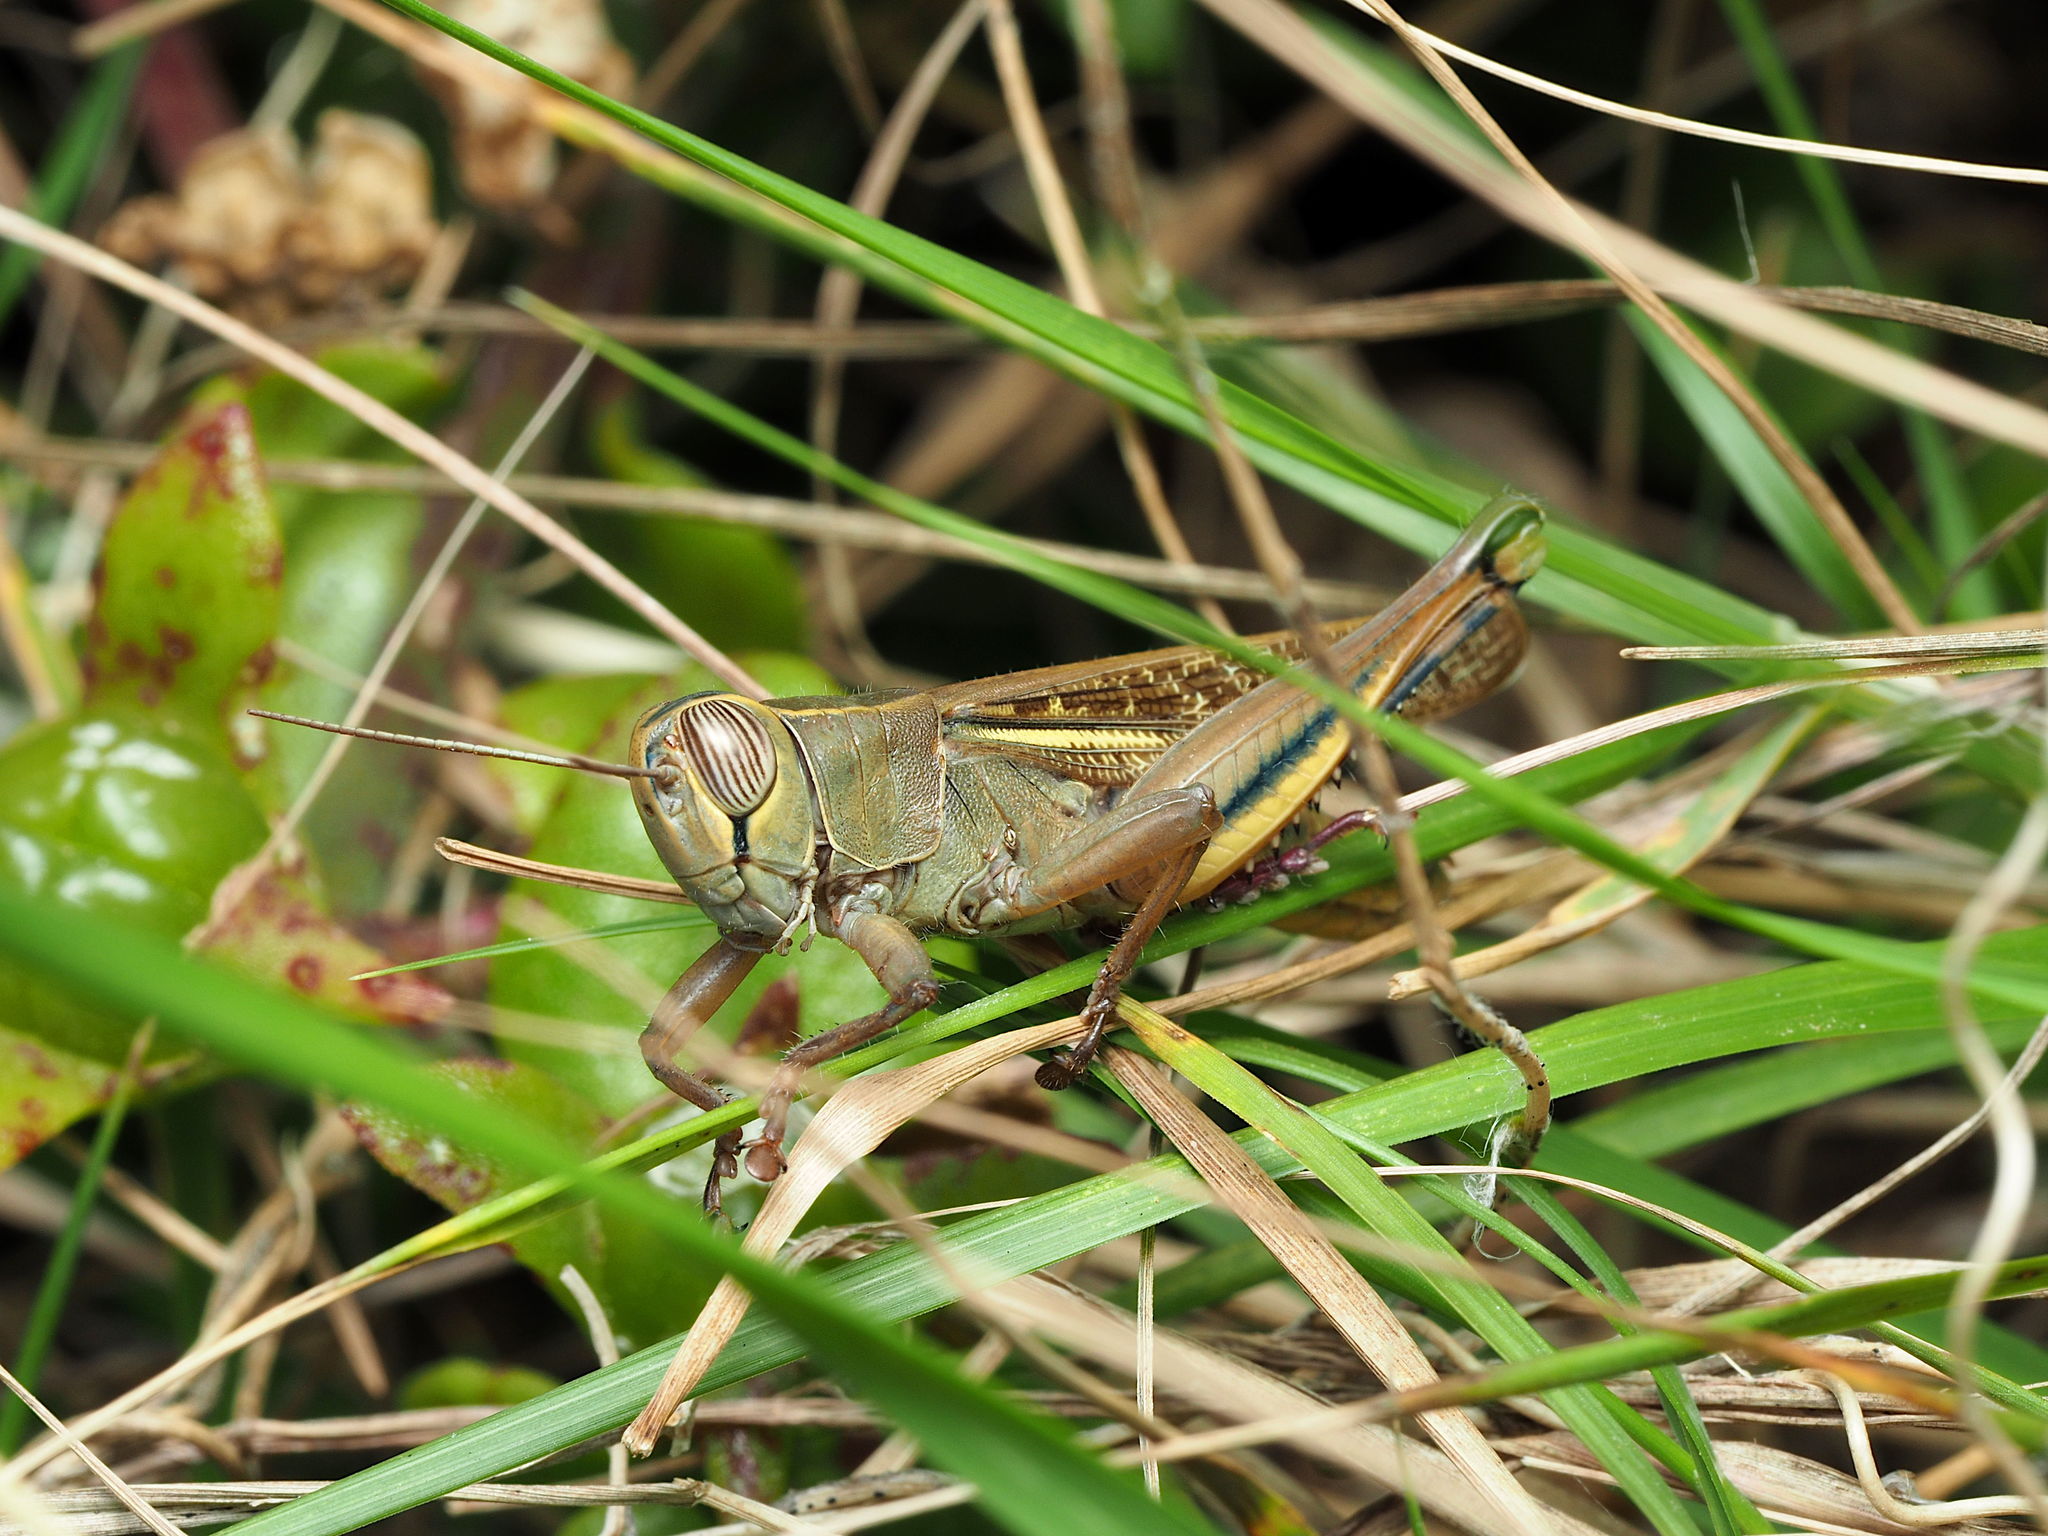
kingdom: Animalia
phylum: Arthropoda
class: Insecta
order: Orthoptera
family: Acrididae
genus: Eyprepocnemis
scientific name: Eyprepocnemis plorans
